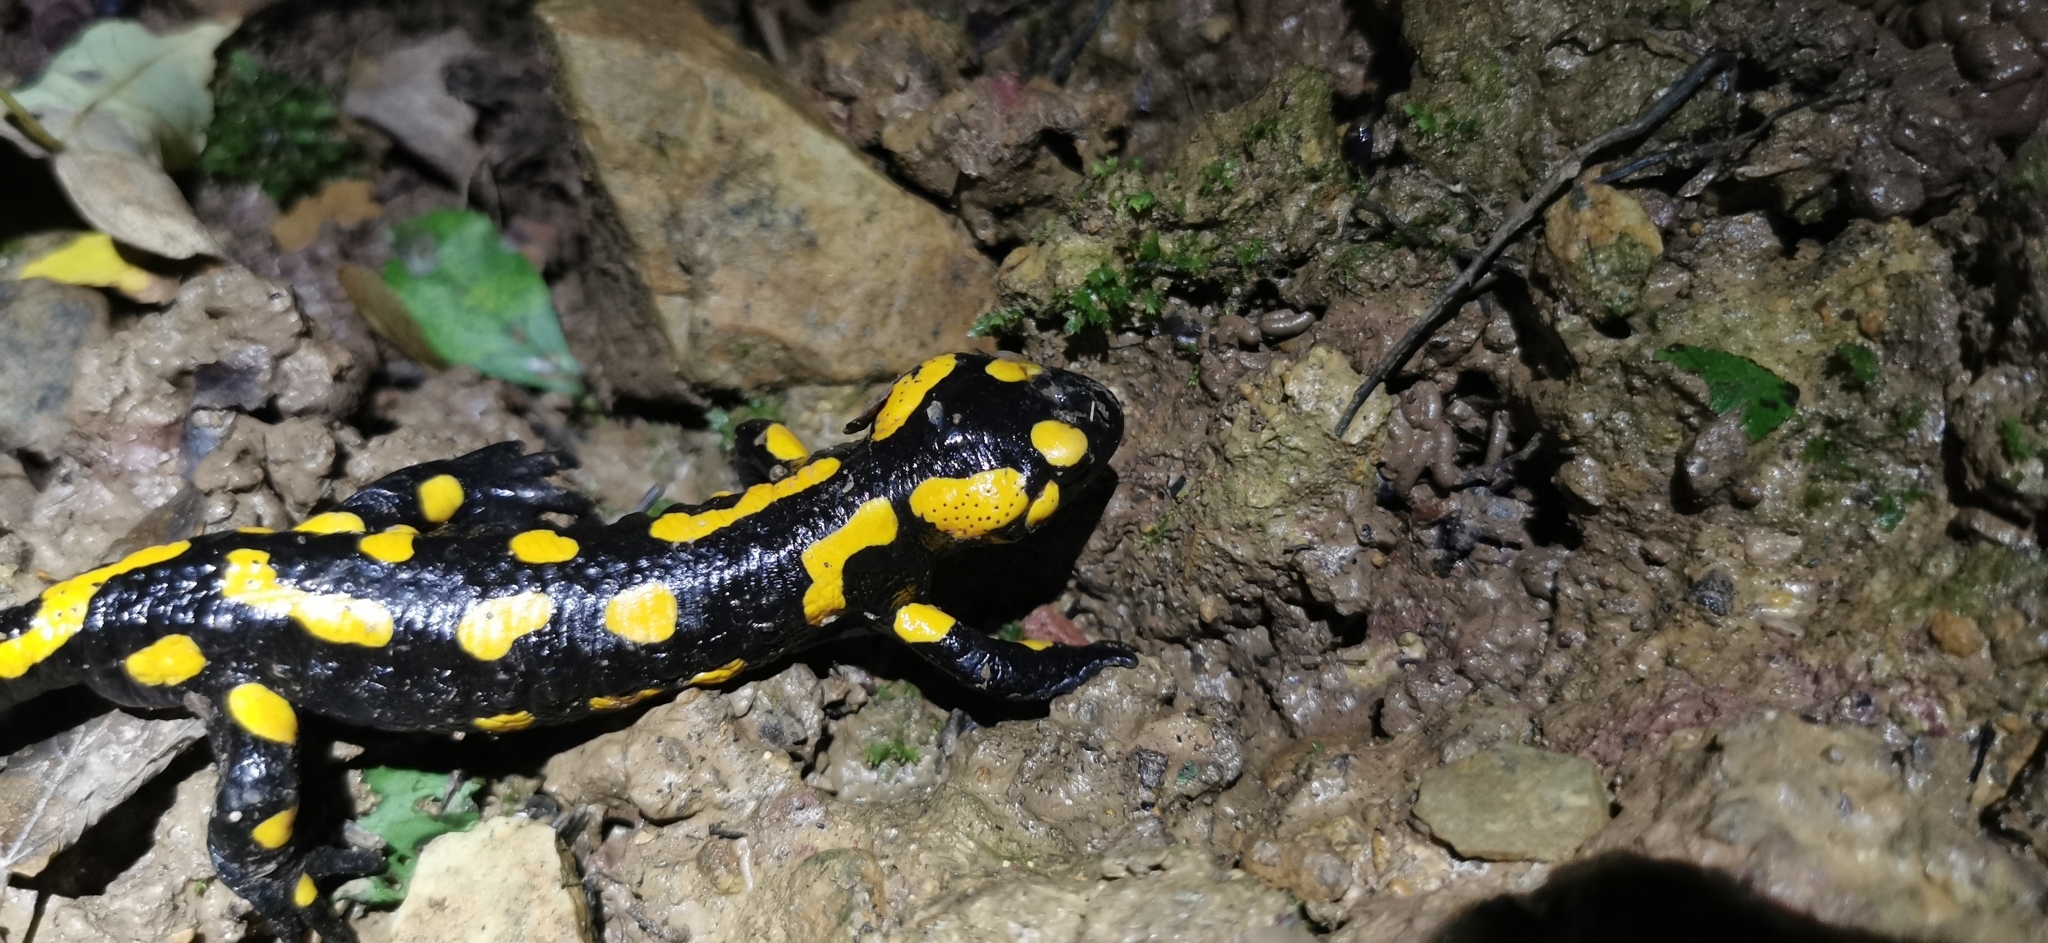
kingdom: Animalia
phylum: Chordata
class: Amphibia
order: Caudata
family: Salamandridae
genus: Salamandra
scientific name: Salamandra salamandra
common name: Fire salamander
